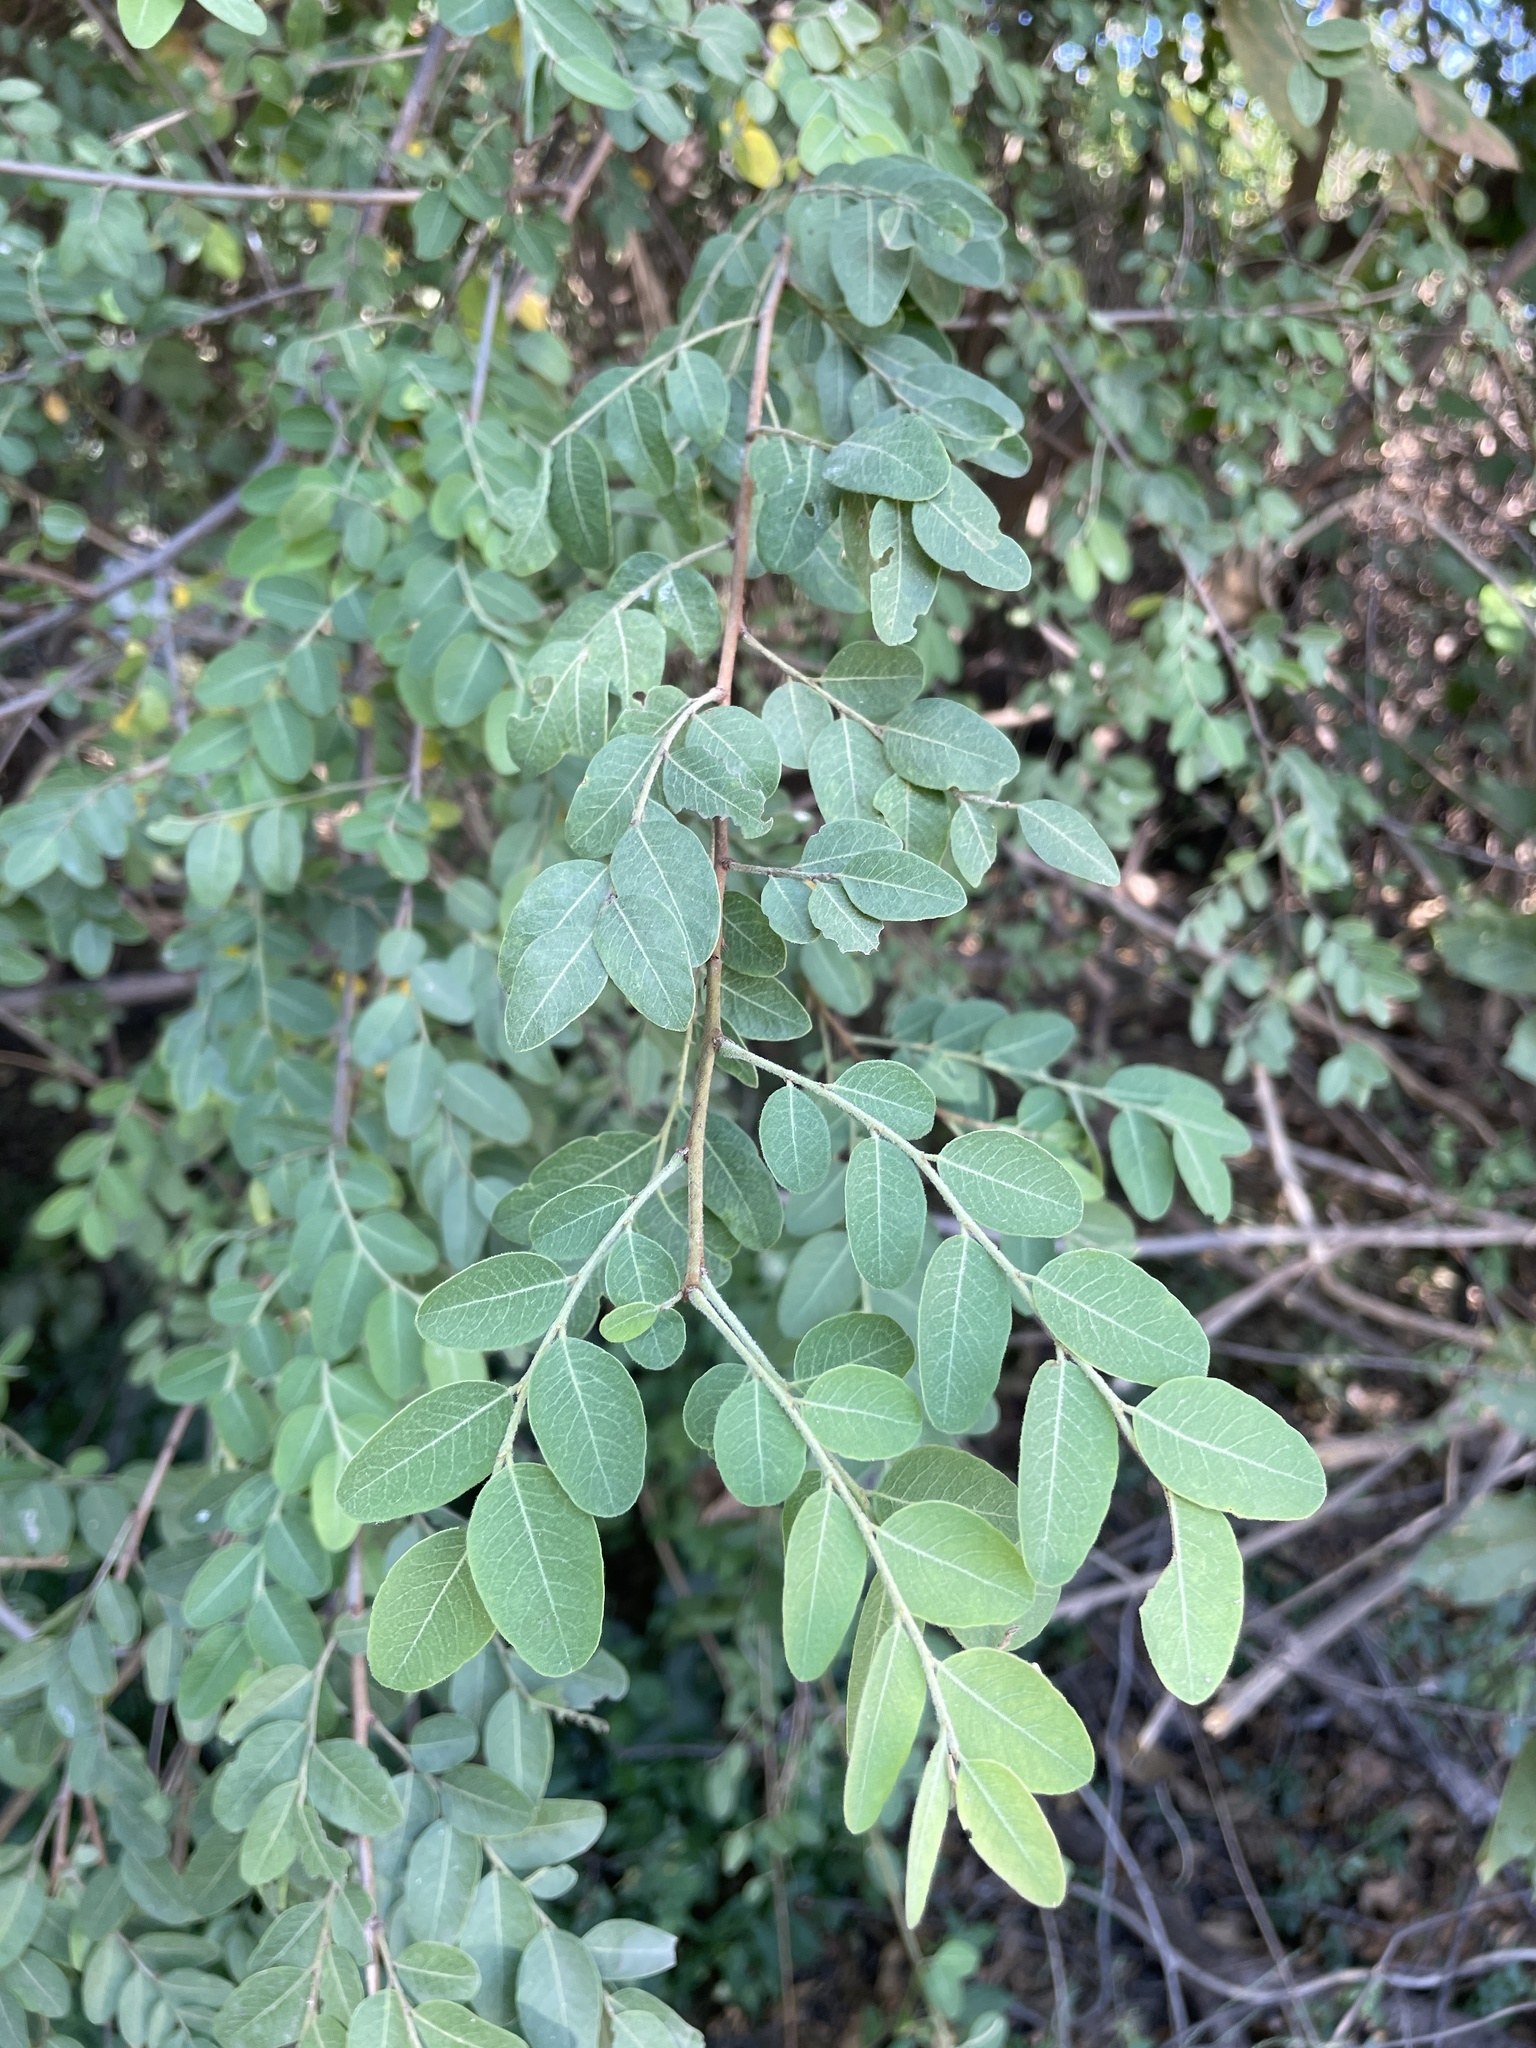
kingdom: Plantae
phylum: Tracheophyta
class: Magnoliopsida
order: Malpighiales
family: Phyllanthaceae
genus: Phyllanthus
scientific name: Phyllanthus reticulatus
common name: Potato bush
